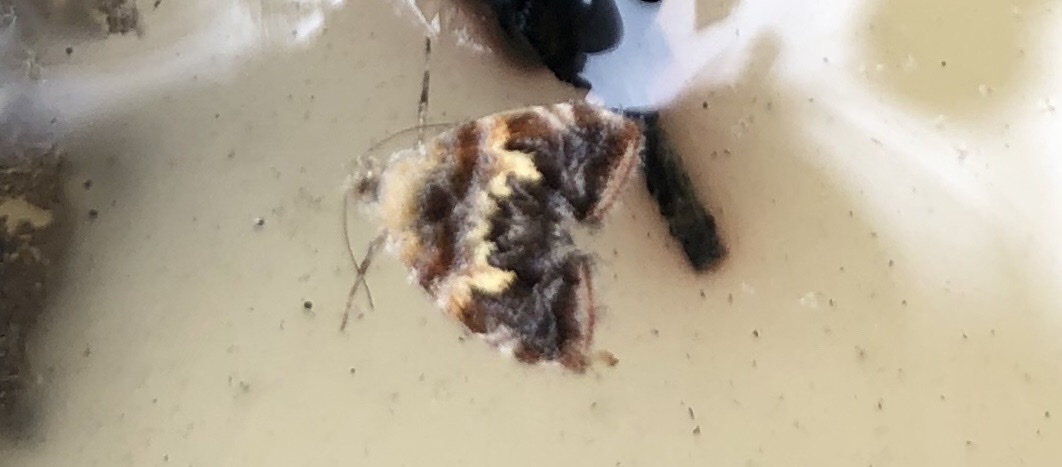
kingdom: Animalia
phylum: Arthropoda
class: Insecta
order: Lepidoptera
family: Choreutidae
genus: Choreutis
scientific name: Choreutis sexfasciella
